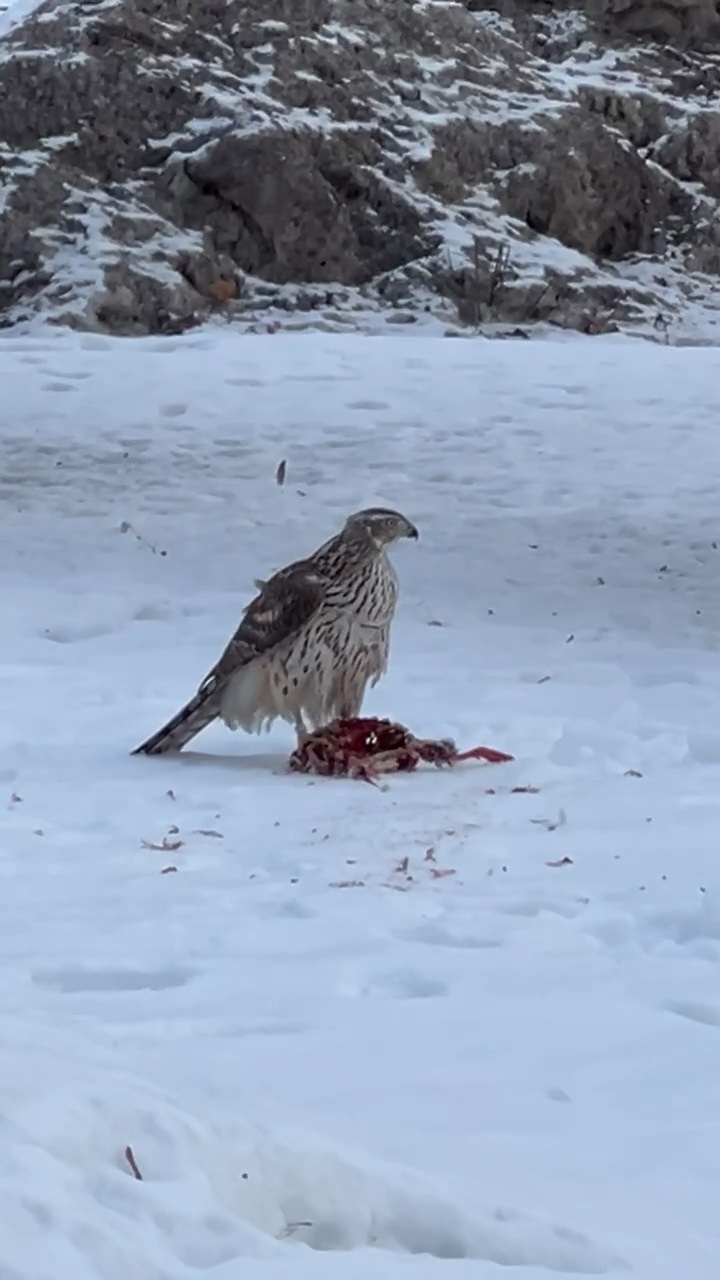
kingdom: Animalia
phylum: Chordata
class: Aves
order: Accipitriformes
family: Accipitridae
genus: Accipiter
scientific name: Accipiter gentilis
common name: Northern goshawk
